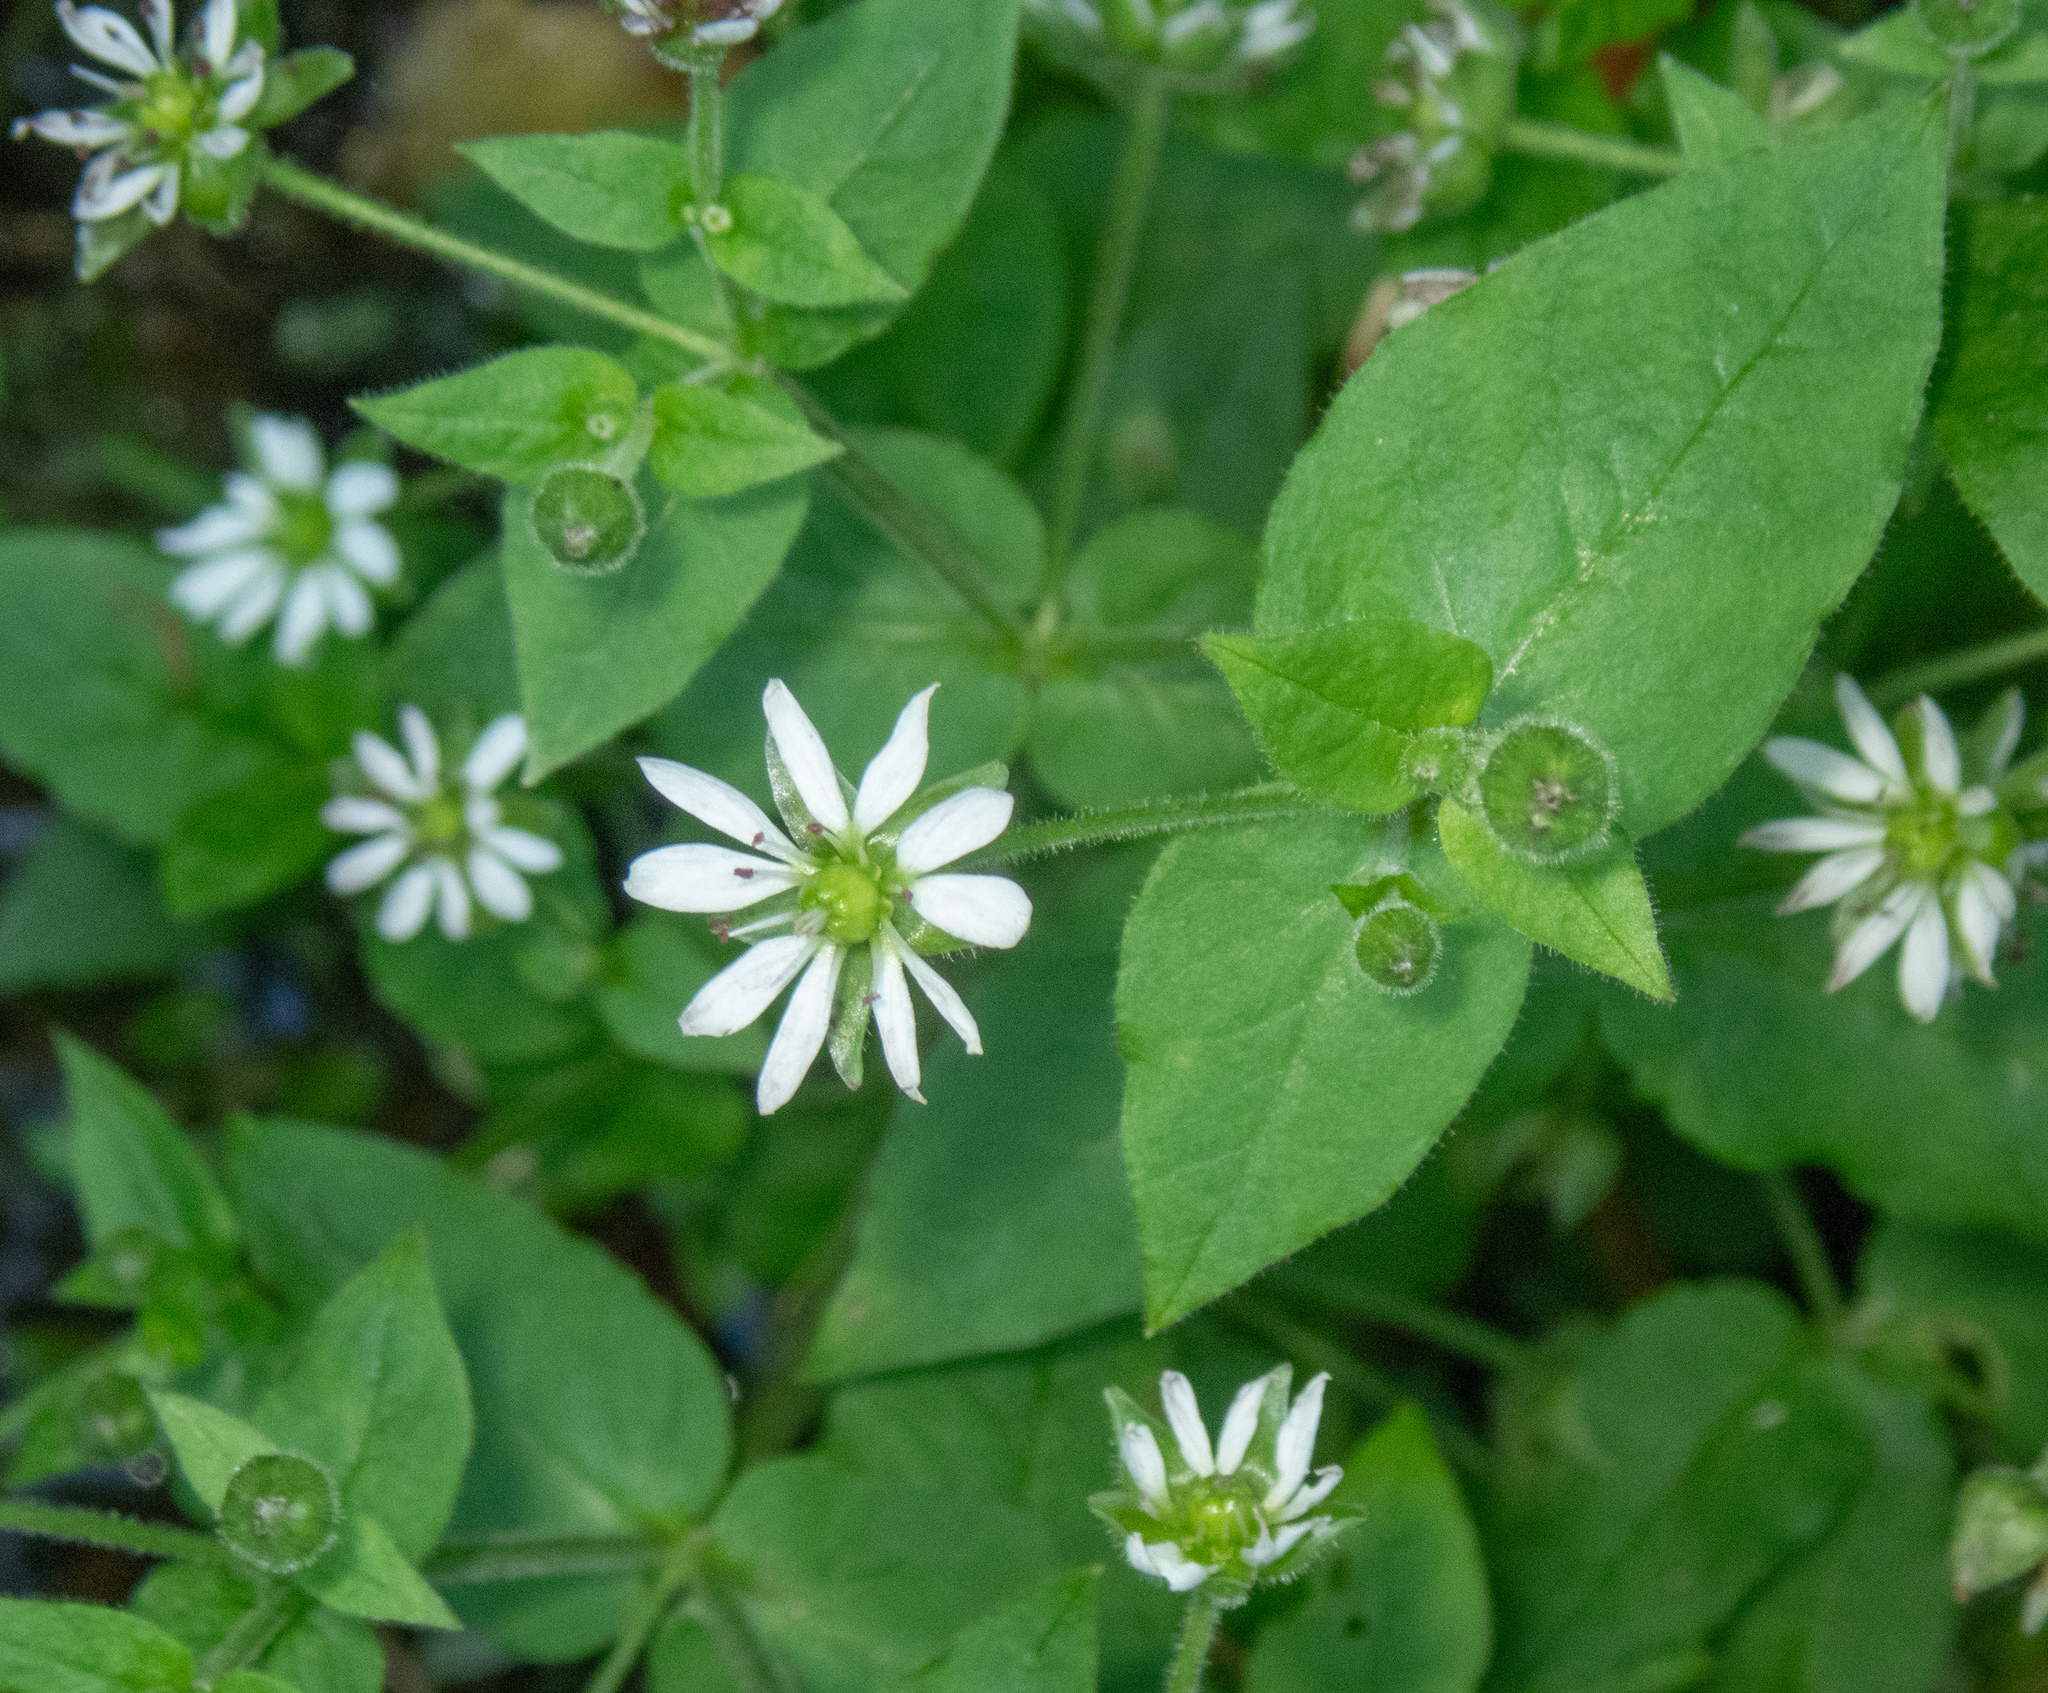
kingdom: Plantae
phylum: Tracheophyta
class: Magnoliopsida
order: Caryophyllales
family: Caryophyllaceae
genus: Stellaria
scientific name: Stellaria aquatica
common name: Water chickweed
